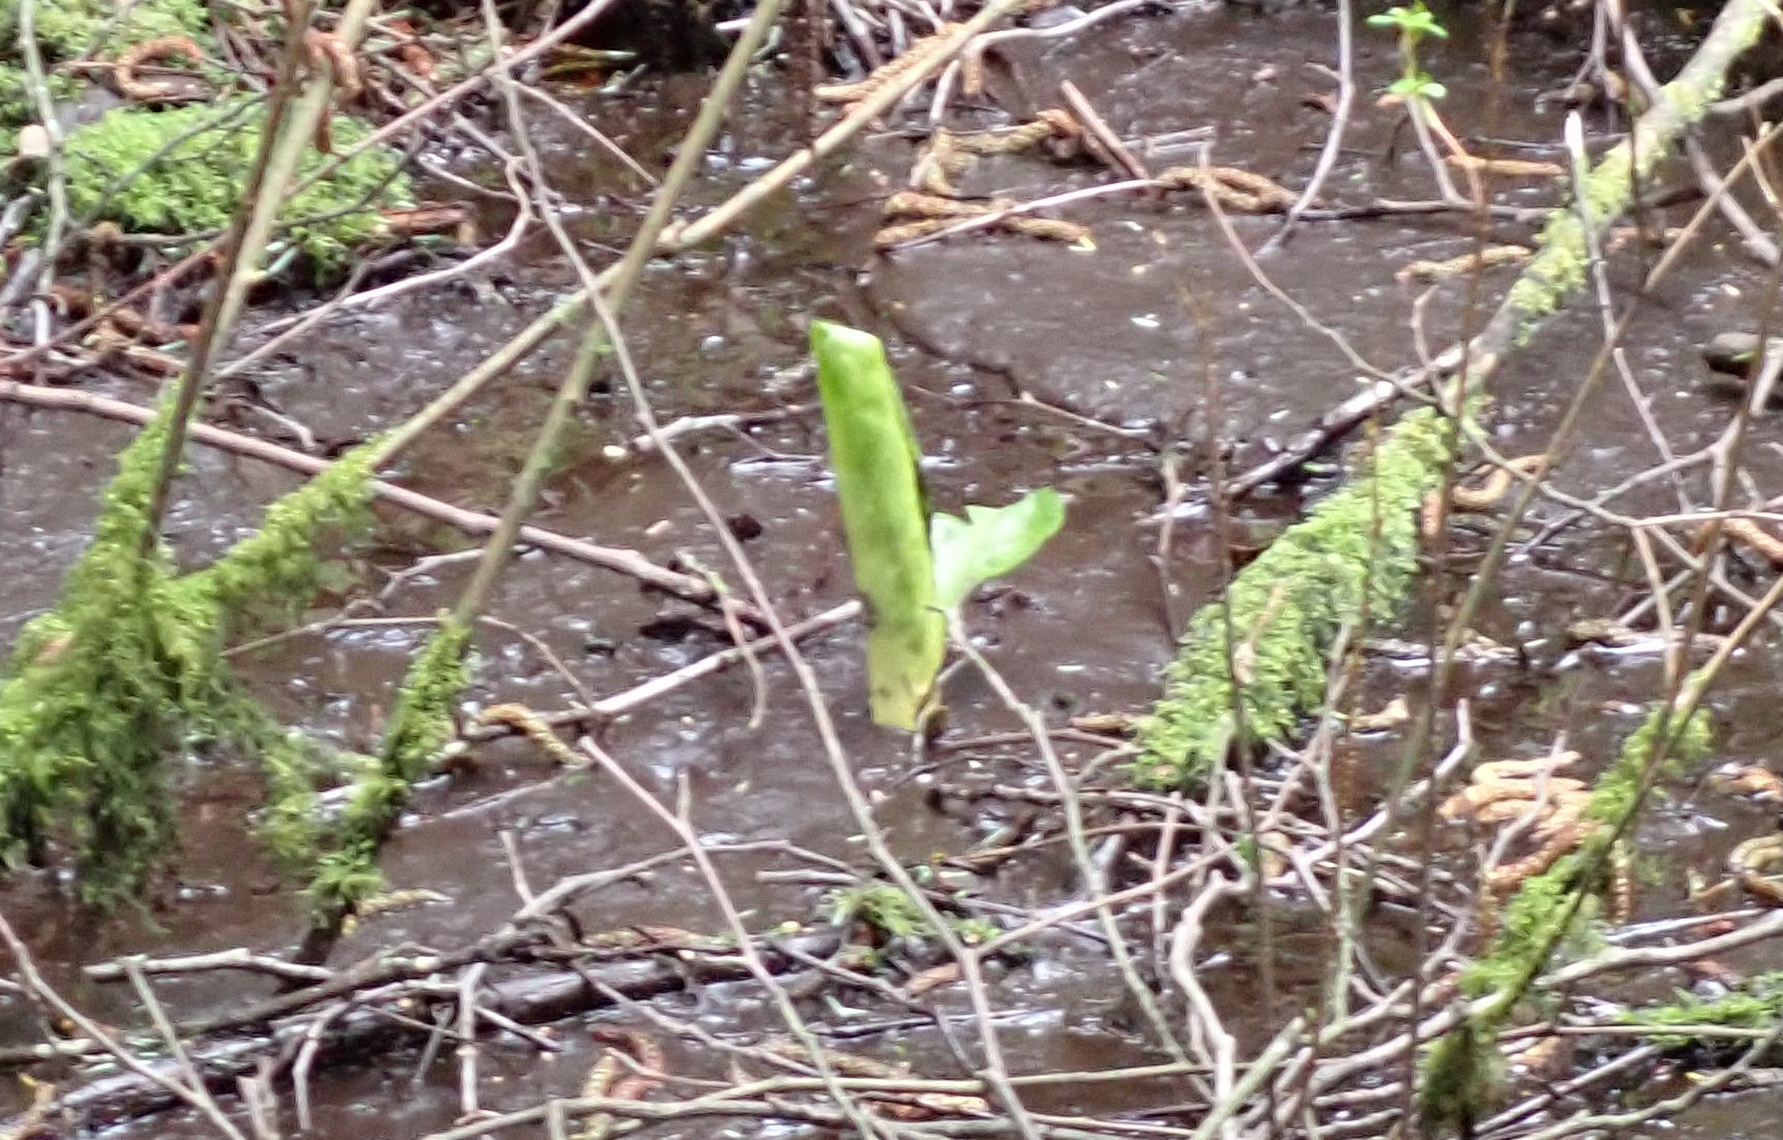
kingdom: Plantae
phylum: Tracheophyta
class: Liliopsida
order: Alismatales
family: Araceae
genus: Lysichiton
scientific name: Lysichiton americanus
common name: American skunk cabbage
